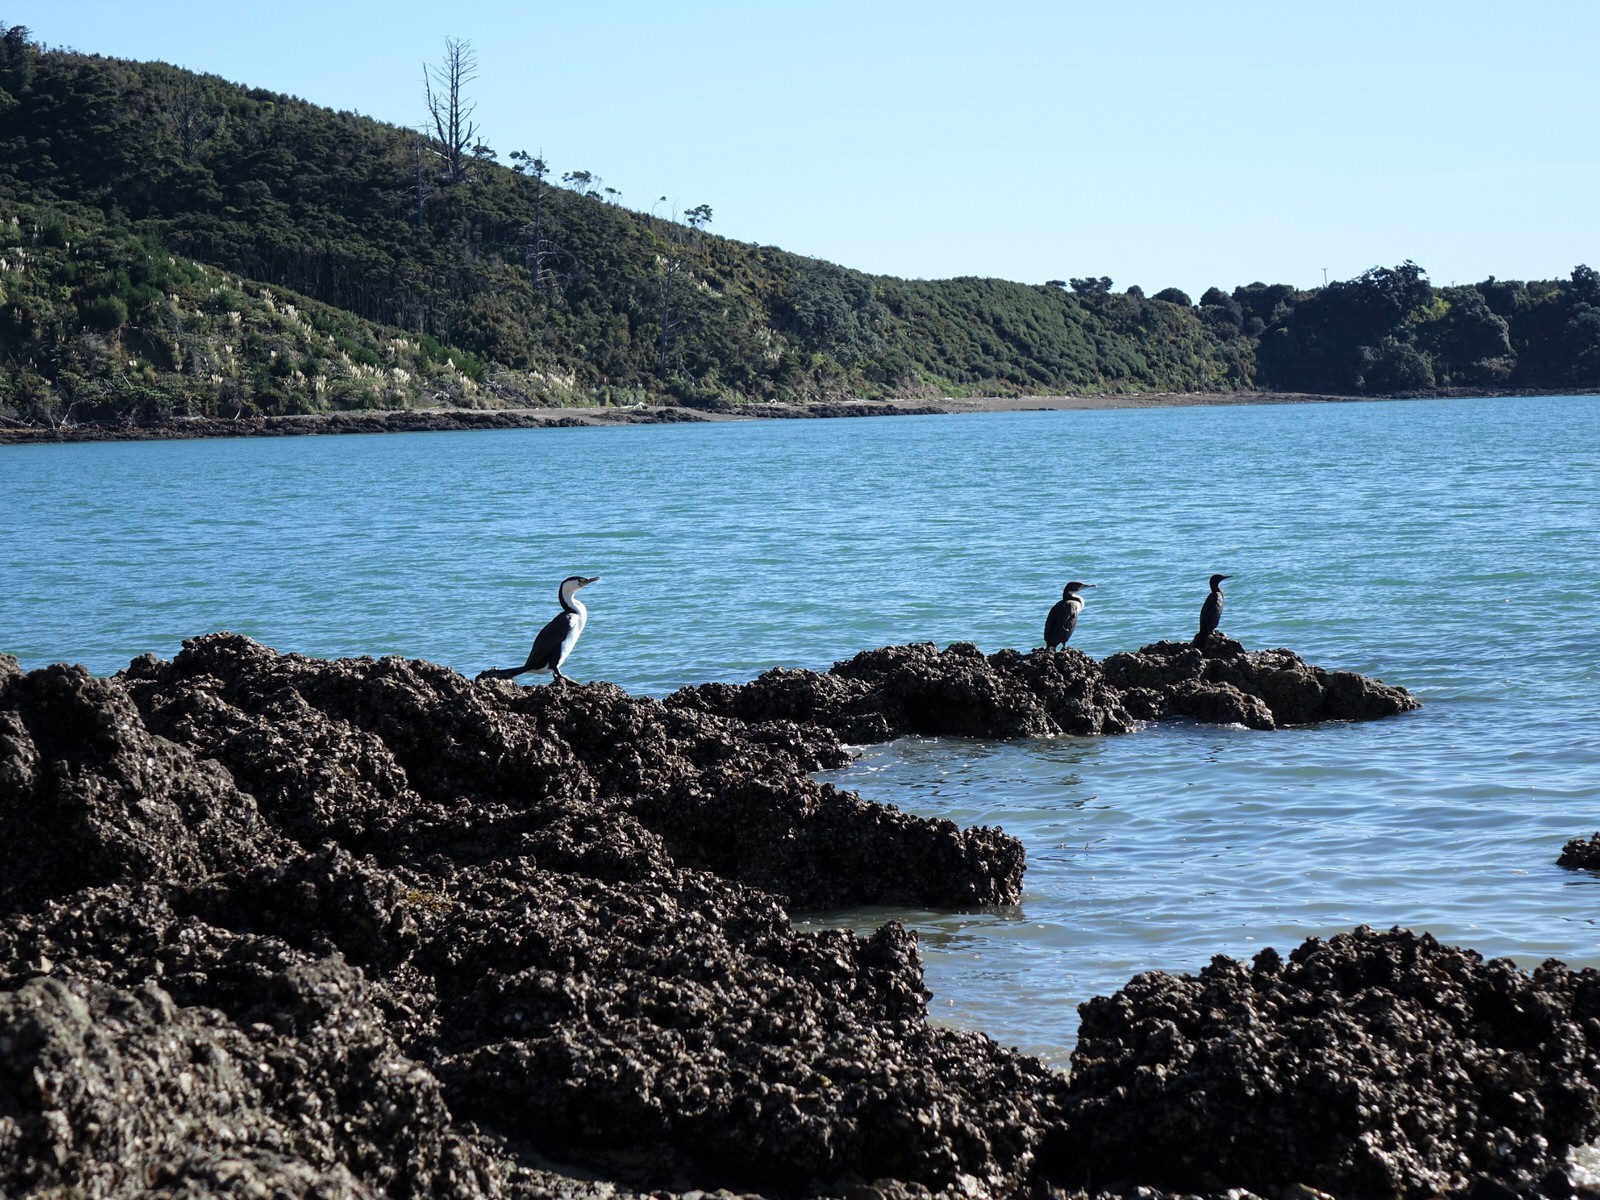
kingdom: Animalia
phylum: Chordata
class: Aves
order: Suliformes
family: Phalacrocoracidae
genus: Phalacrocorax
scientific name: Phalacrocorax sulcirostris
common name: Little black cormorant
